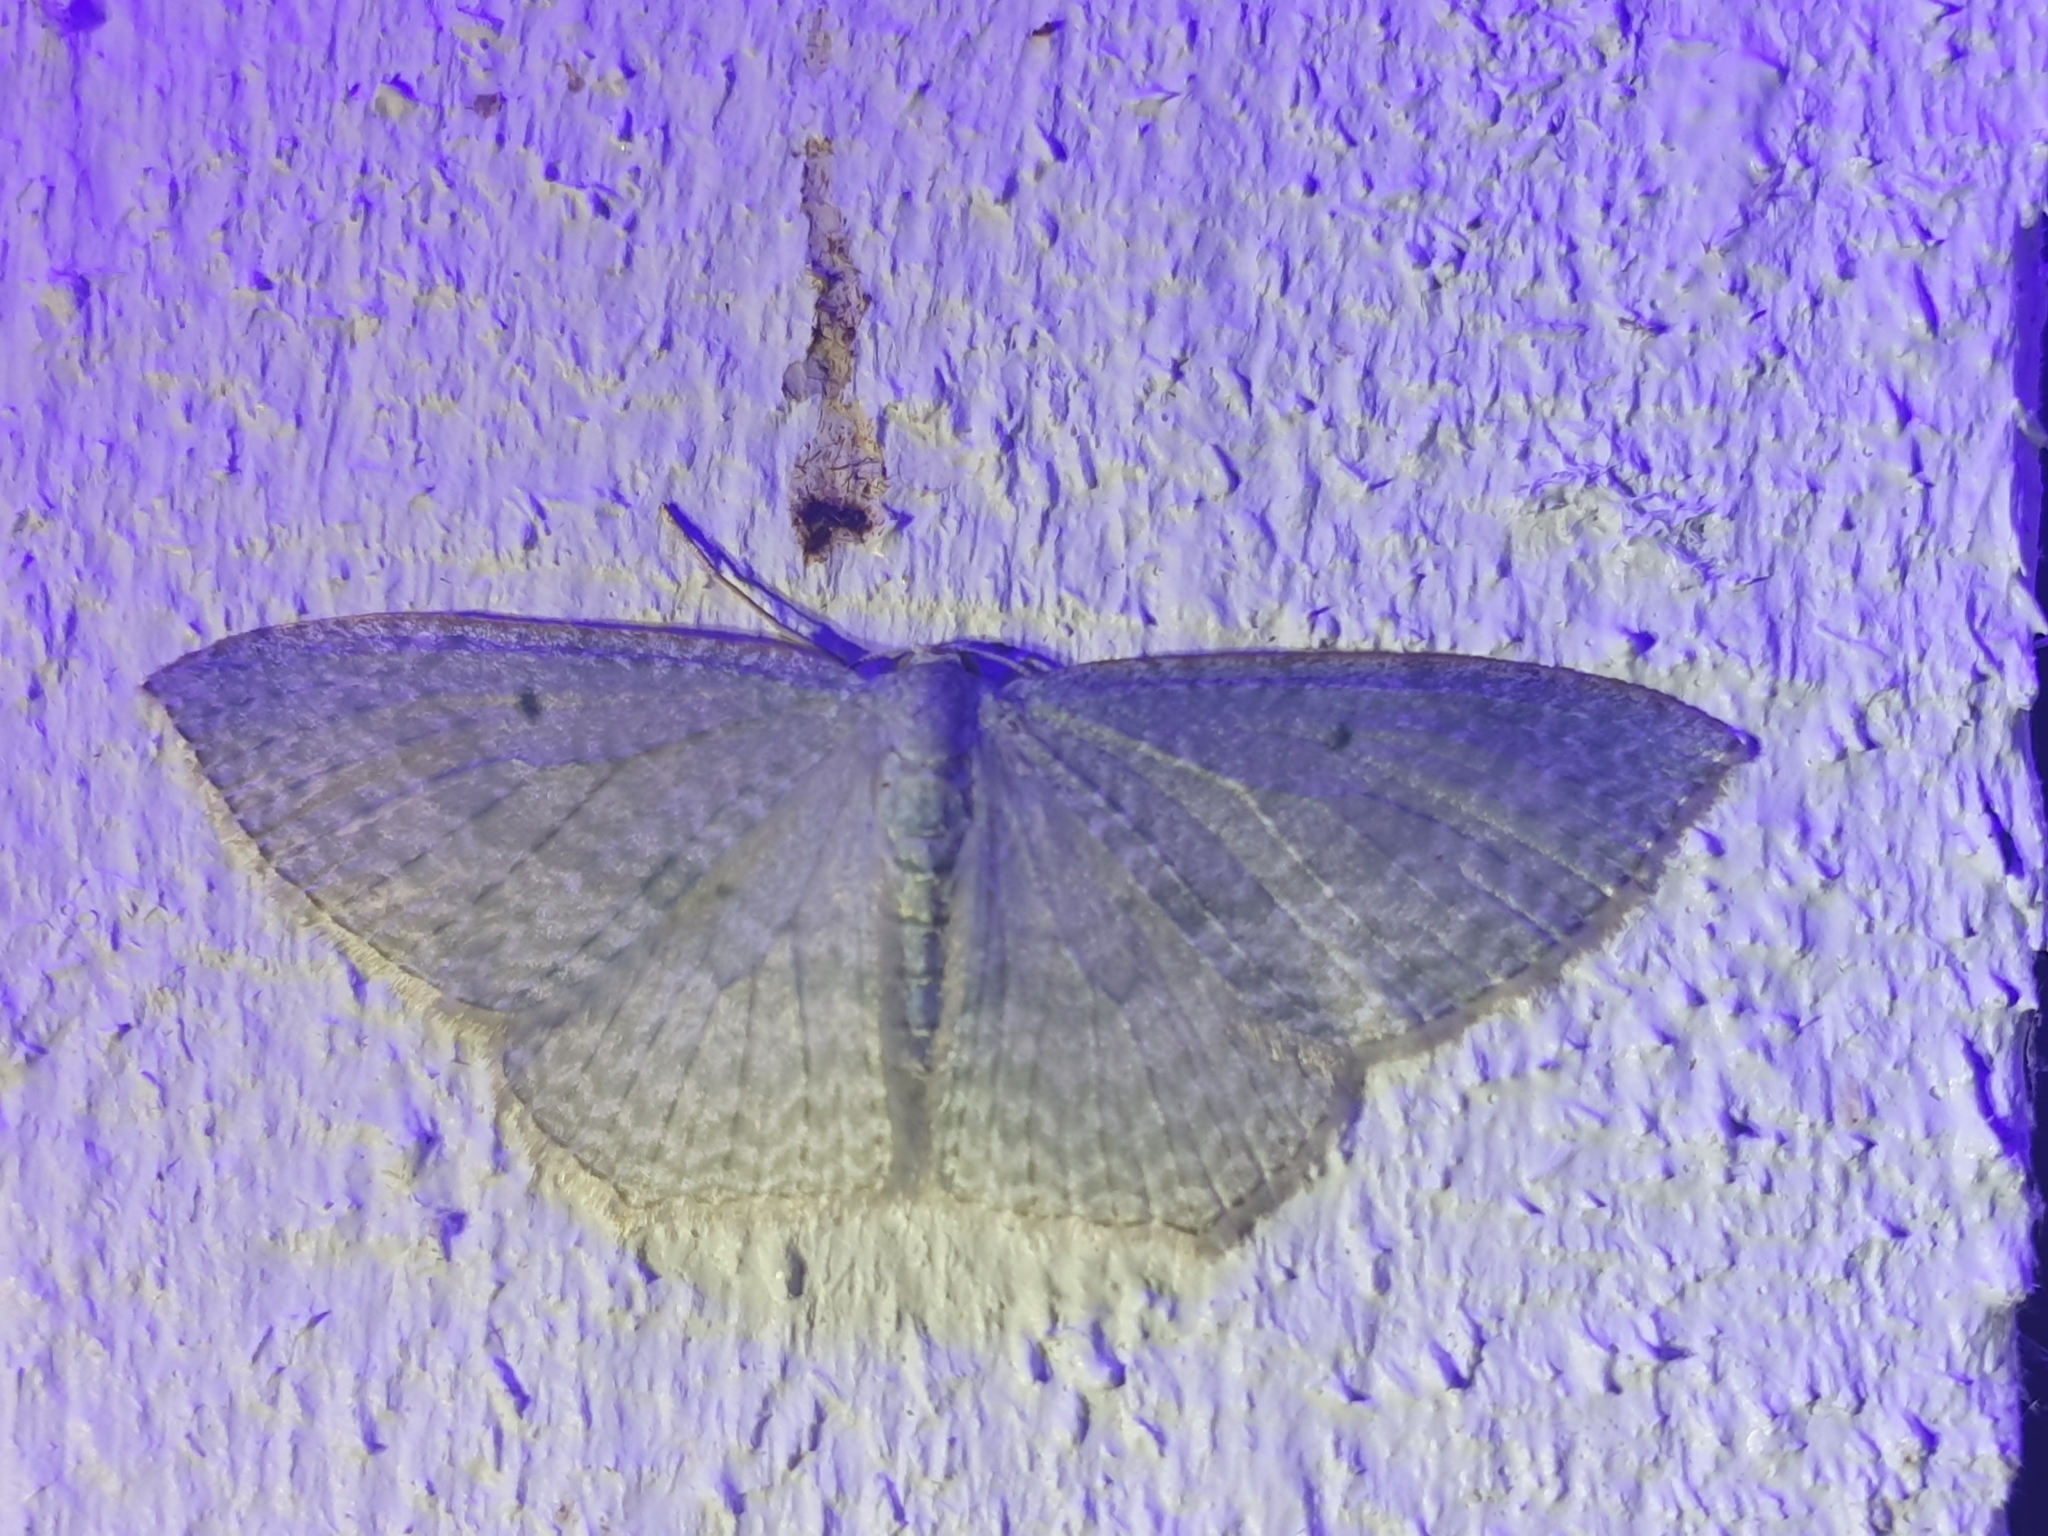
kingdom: Animalia
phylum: Arthropoda
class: Insecta
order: Lepidoptera
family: Geometridae
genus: Poecilasthena
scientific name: Poecilasthena pulchraria
